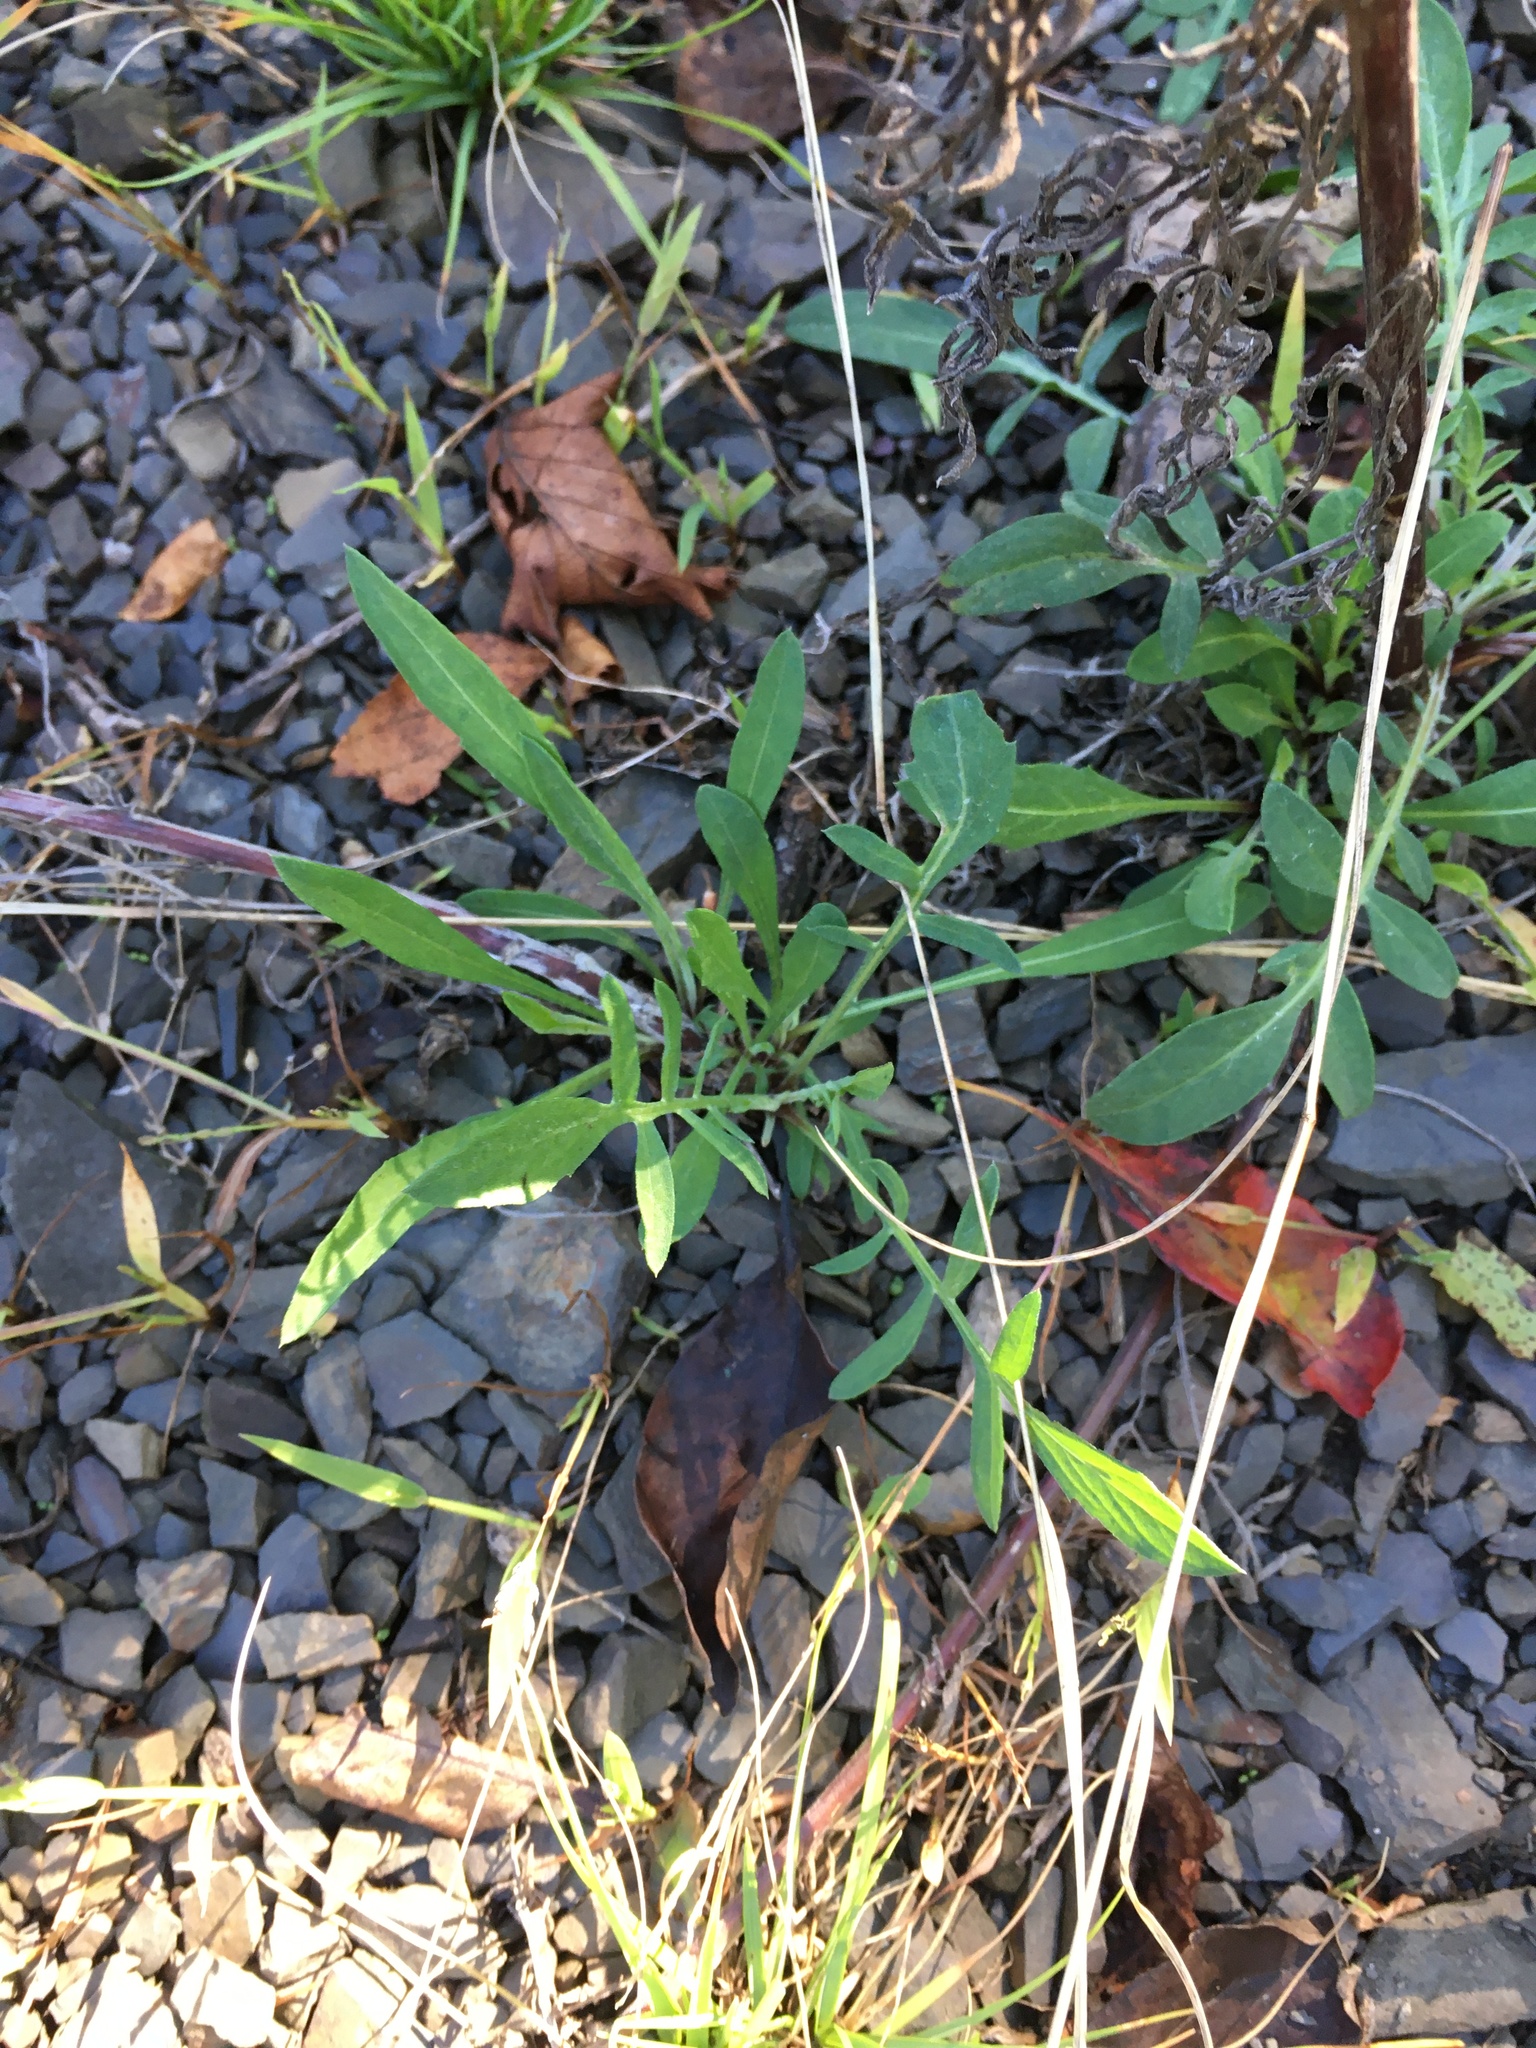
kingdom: Plantae
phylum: Tracheophyta
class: Magnoliopsida
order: Asterales
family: Asteraceae
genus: Centaurea
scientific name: Centaurea stoebe
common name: Spotted knapweed
